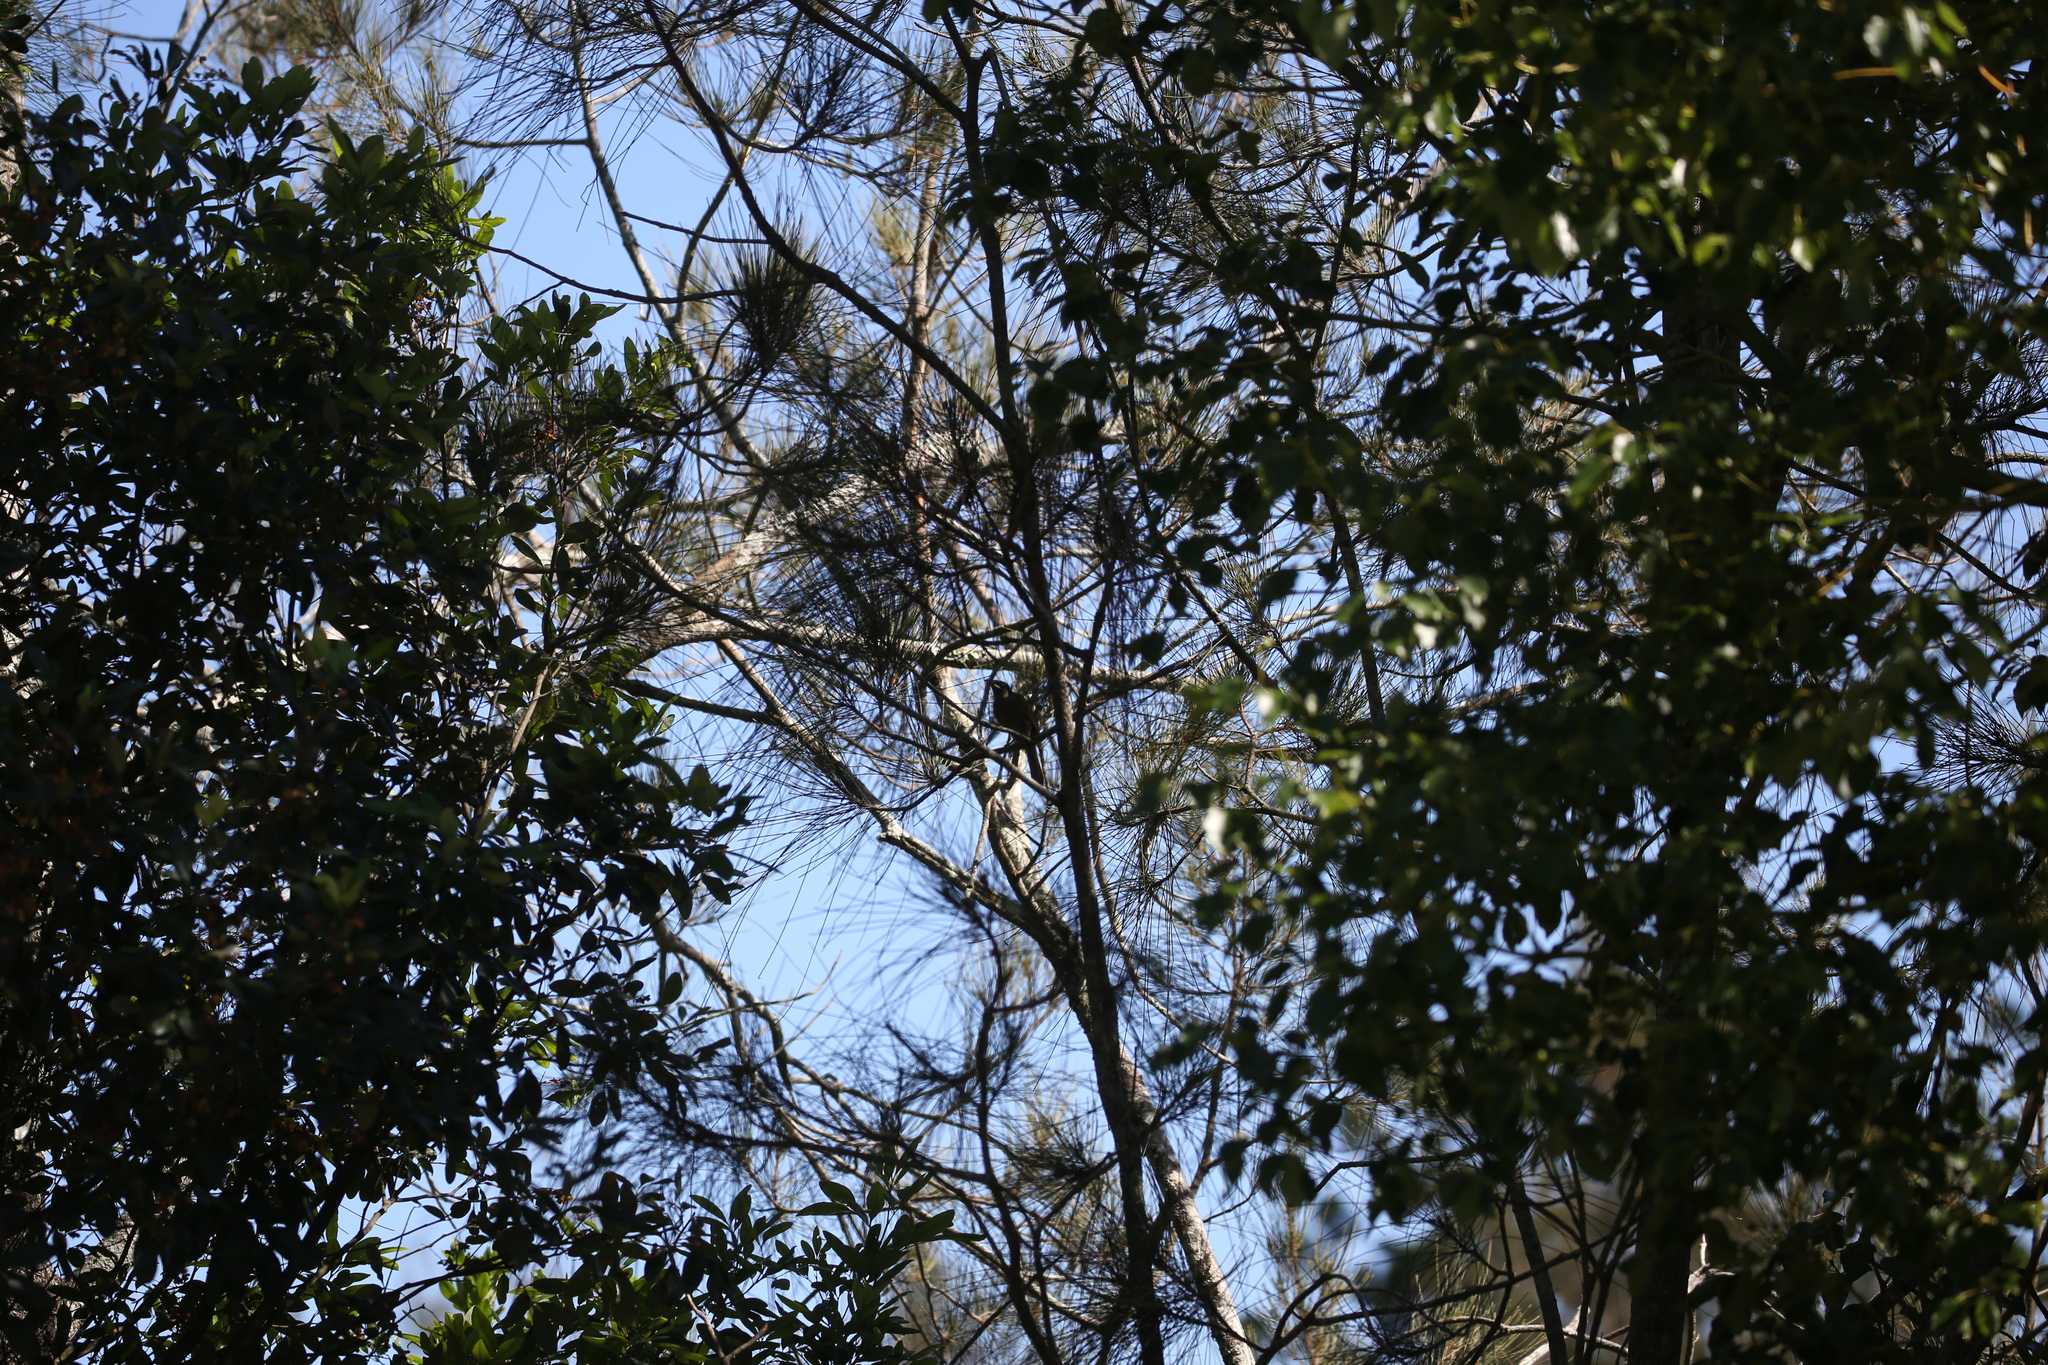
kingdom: Animalia
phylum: Chordata
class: Aves
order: Passeriformes
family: Meliphagidae
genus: Meliphaga
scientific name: Meliphaga lewinii
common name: Lewin's honeyeater
